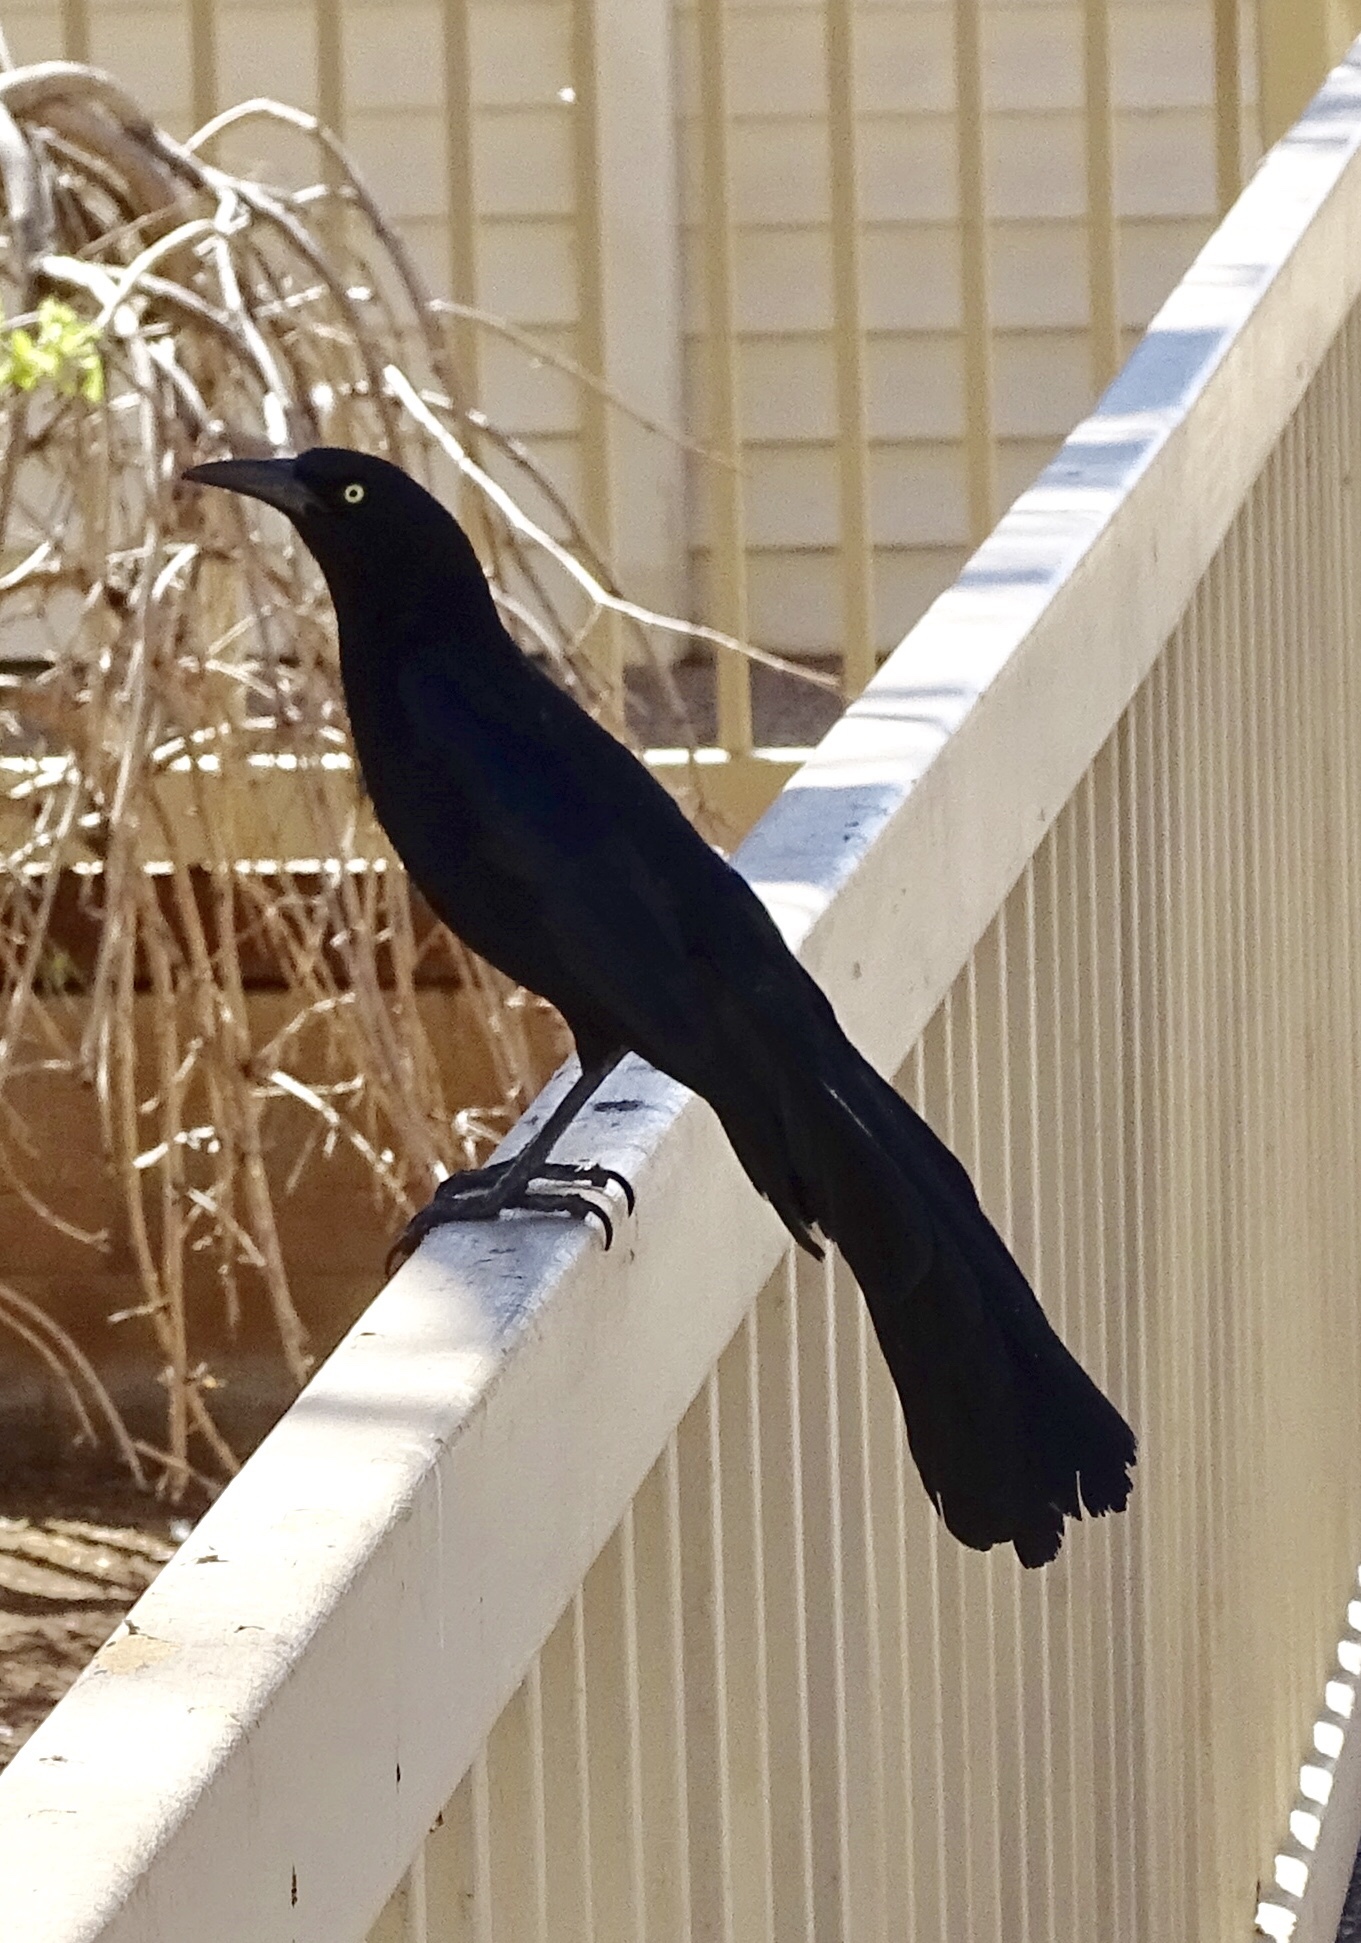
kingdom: Animalia
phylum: Chordata
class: Aves
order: Passeriformes
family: Icteridae
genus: Quiscalus
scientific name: Quiscalus mexicanus
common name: Great-tailed grackle
